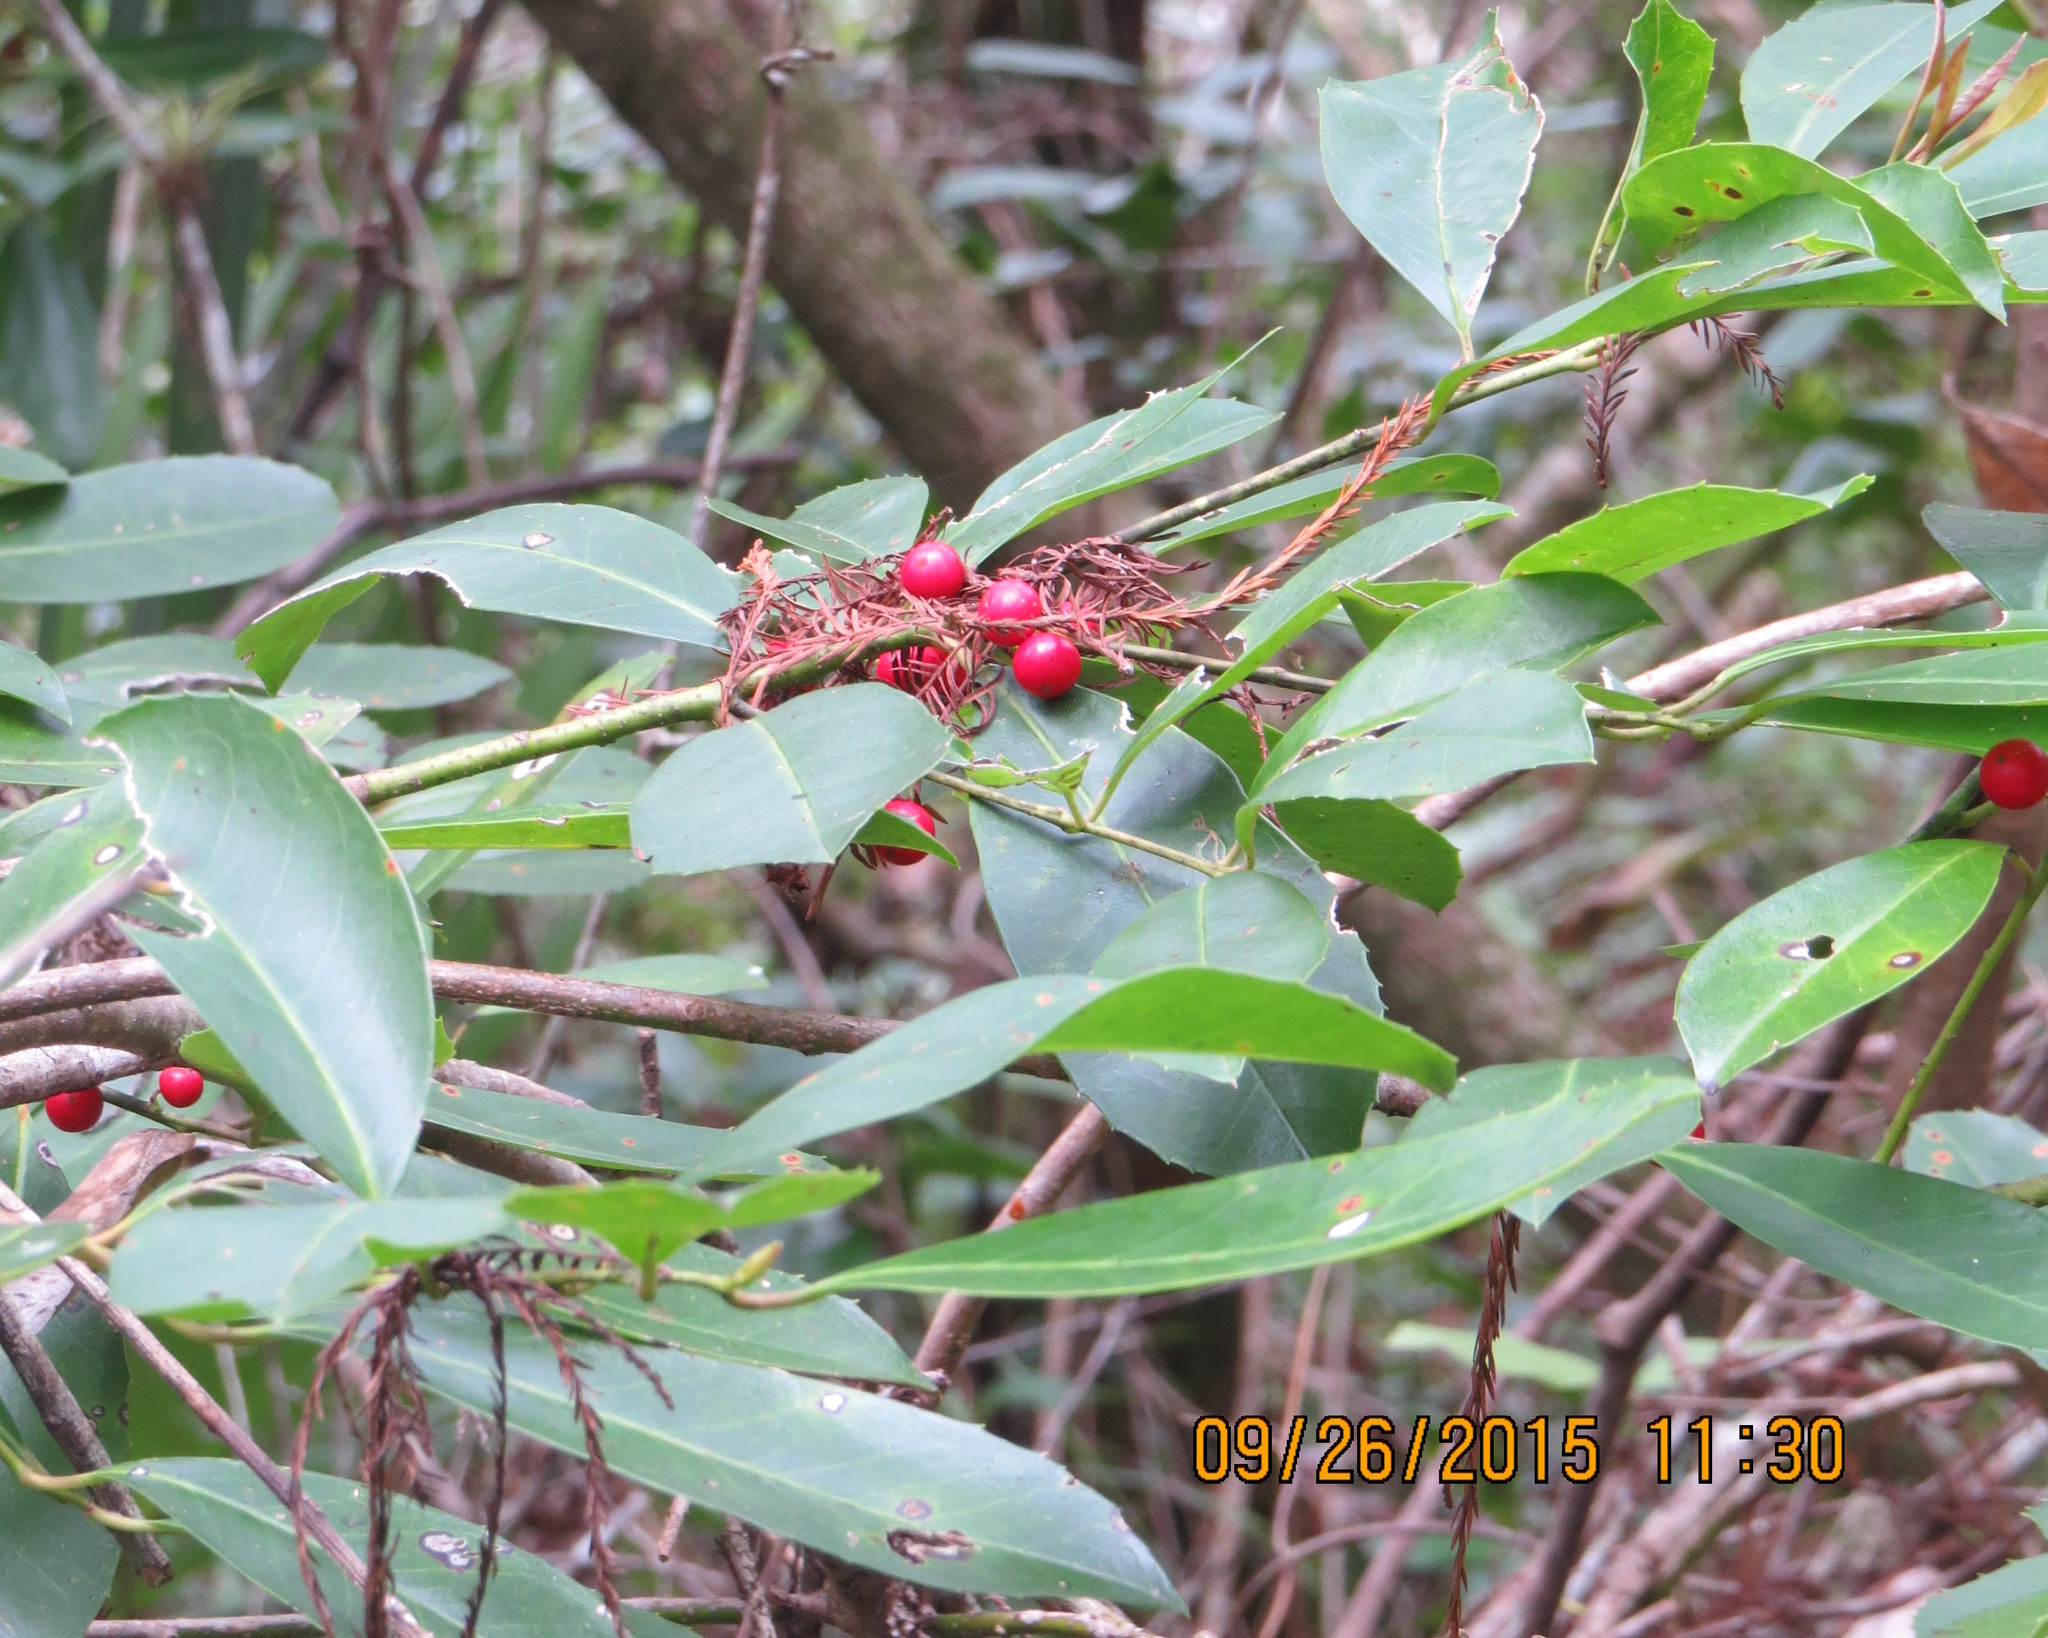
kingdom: Plantae
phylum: Tracheophyta
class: Magnoliopsida
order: Aquifoliales
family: Aquifoliaceae
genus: Ilex
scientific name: Ilex cassine
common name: Dahoon
